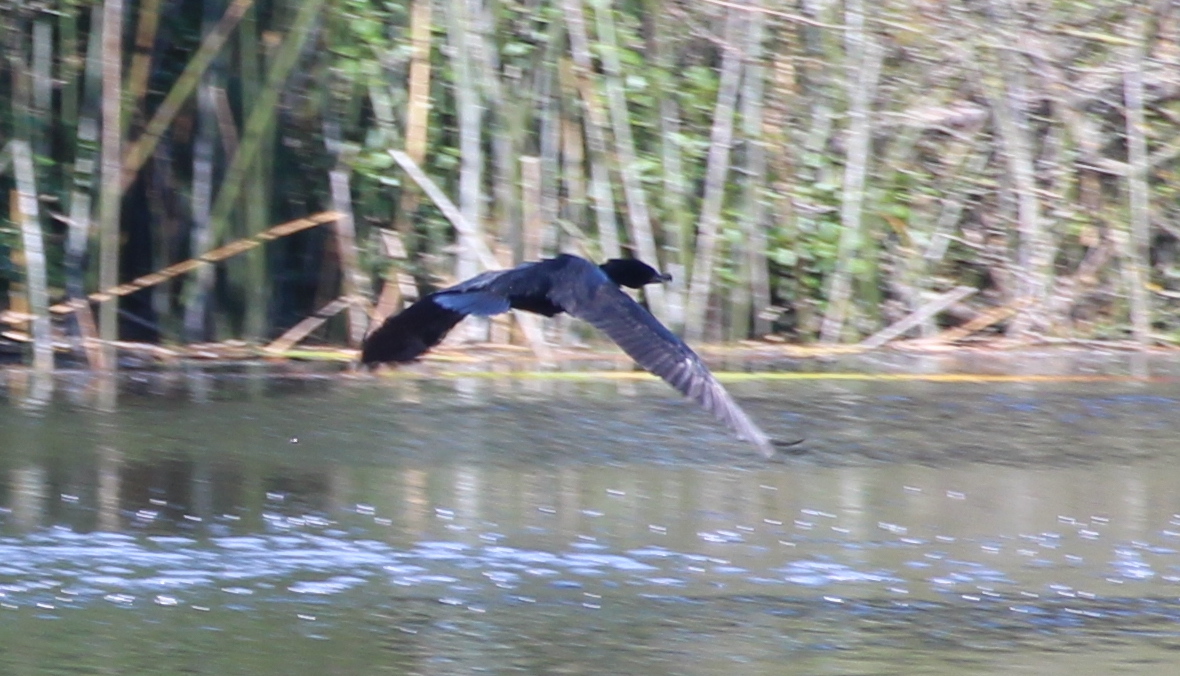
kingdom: Animalia
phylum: Chordata
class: Aves
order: Suliformes
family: Phalacrocoracidae
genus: Phalacrocorax
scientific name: Phalacrocorax auritus
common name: Double-crested cormorant
